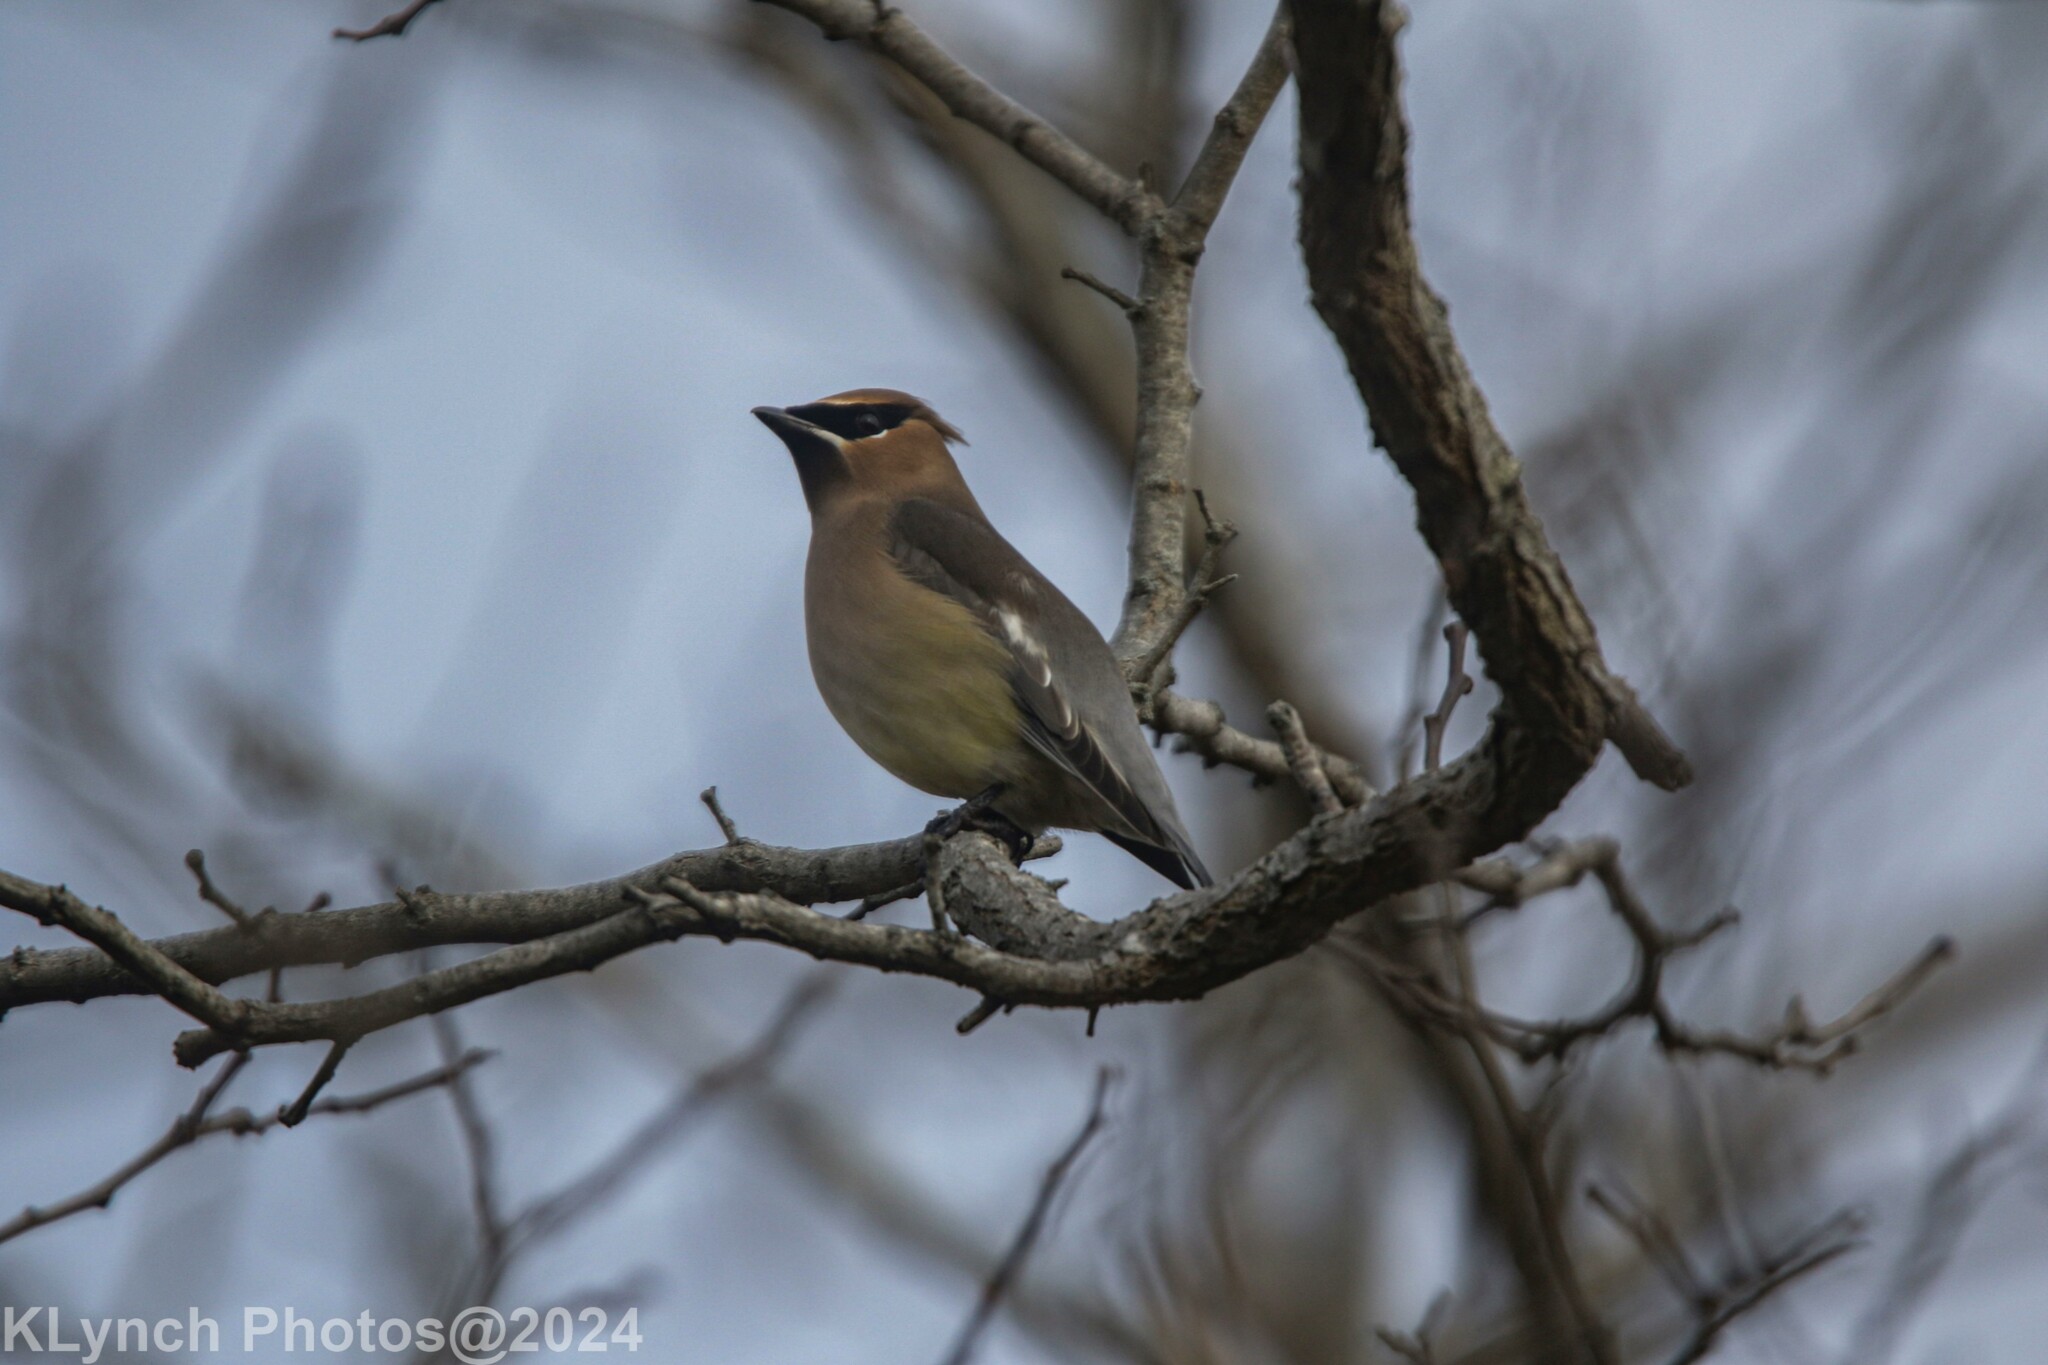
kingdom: Animalia
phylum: Chordata
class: Aves
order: Passeriformes
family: Bombycillidae
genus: Bombycilla
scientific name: Bombycilla cedrorum
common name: Cedar waxwing
